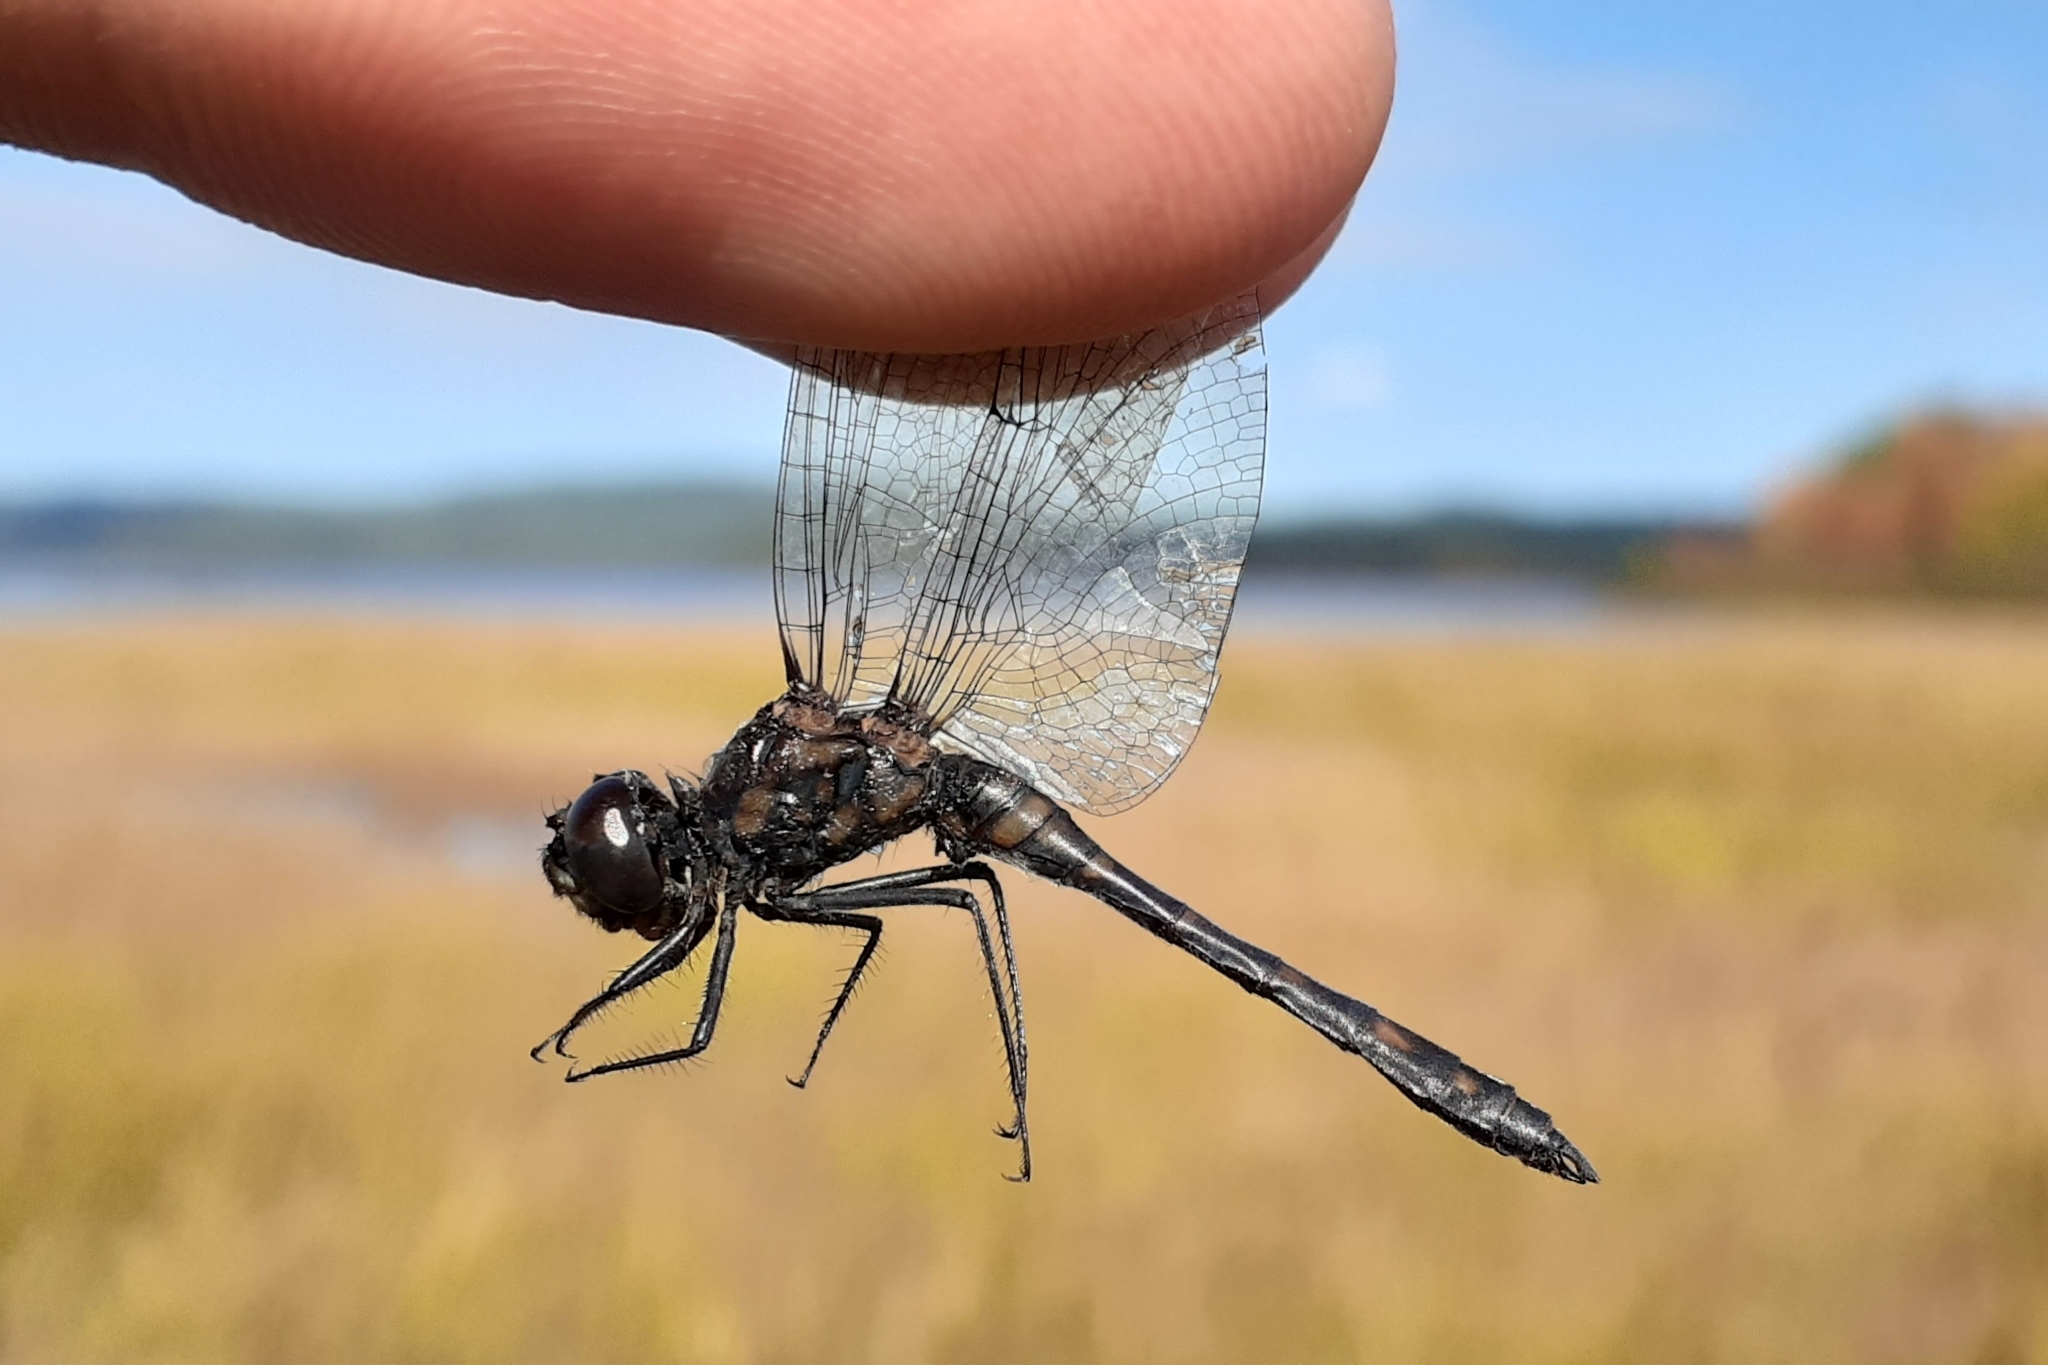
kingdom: Animalia
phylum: Arthropoda
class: Insecta
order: Odonata
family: Libellulidae
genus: Sympetrum
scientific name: Sympetrum danae
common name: Black darter
